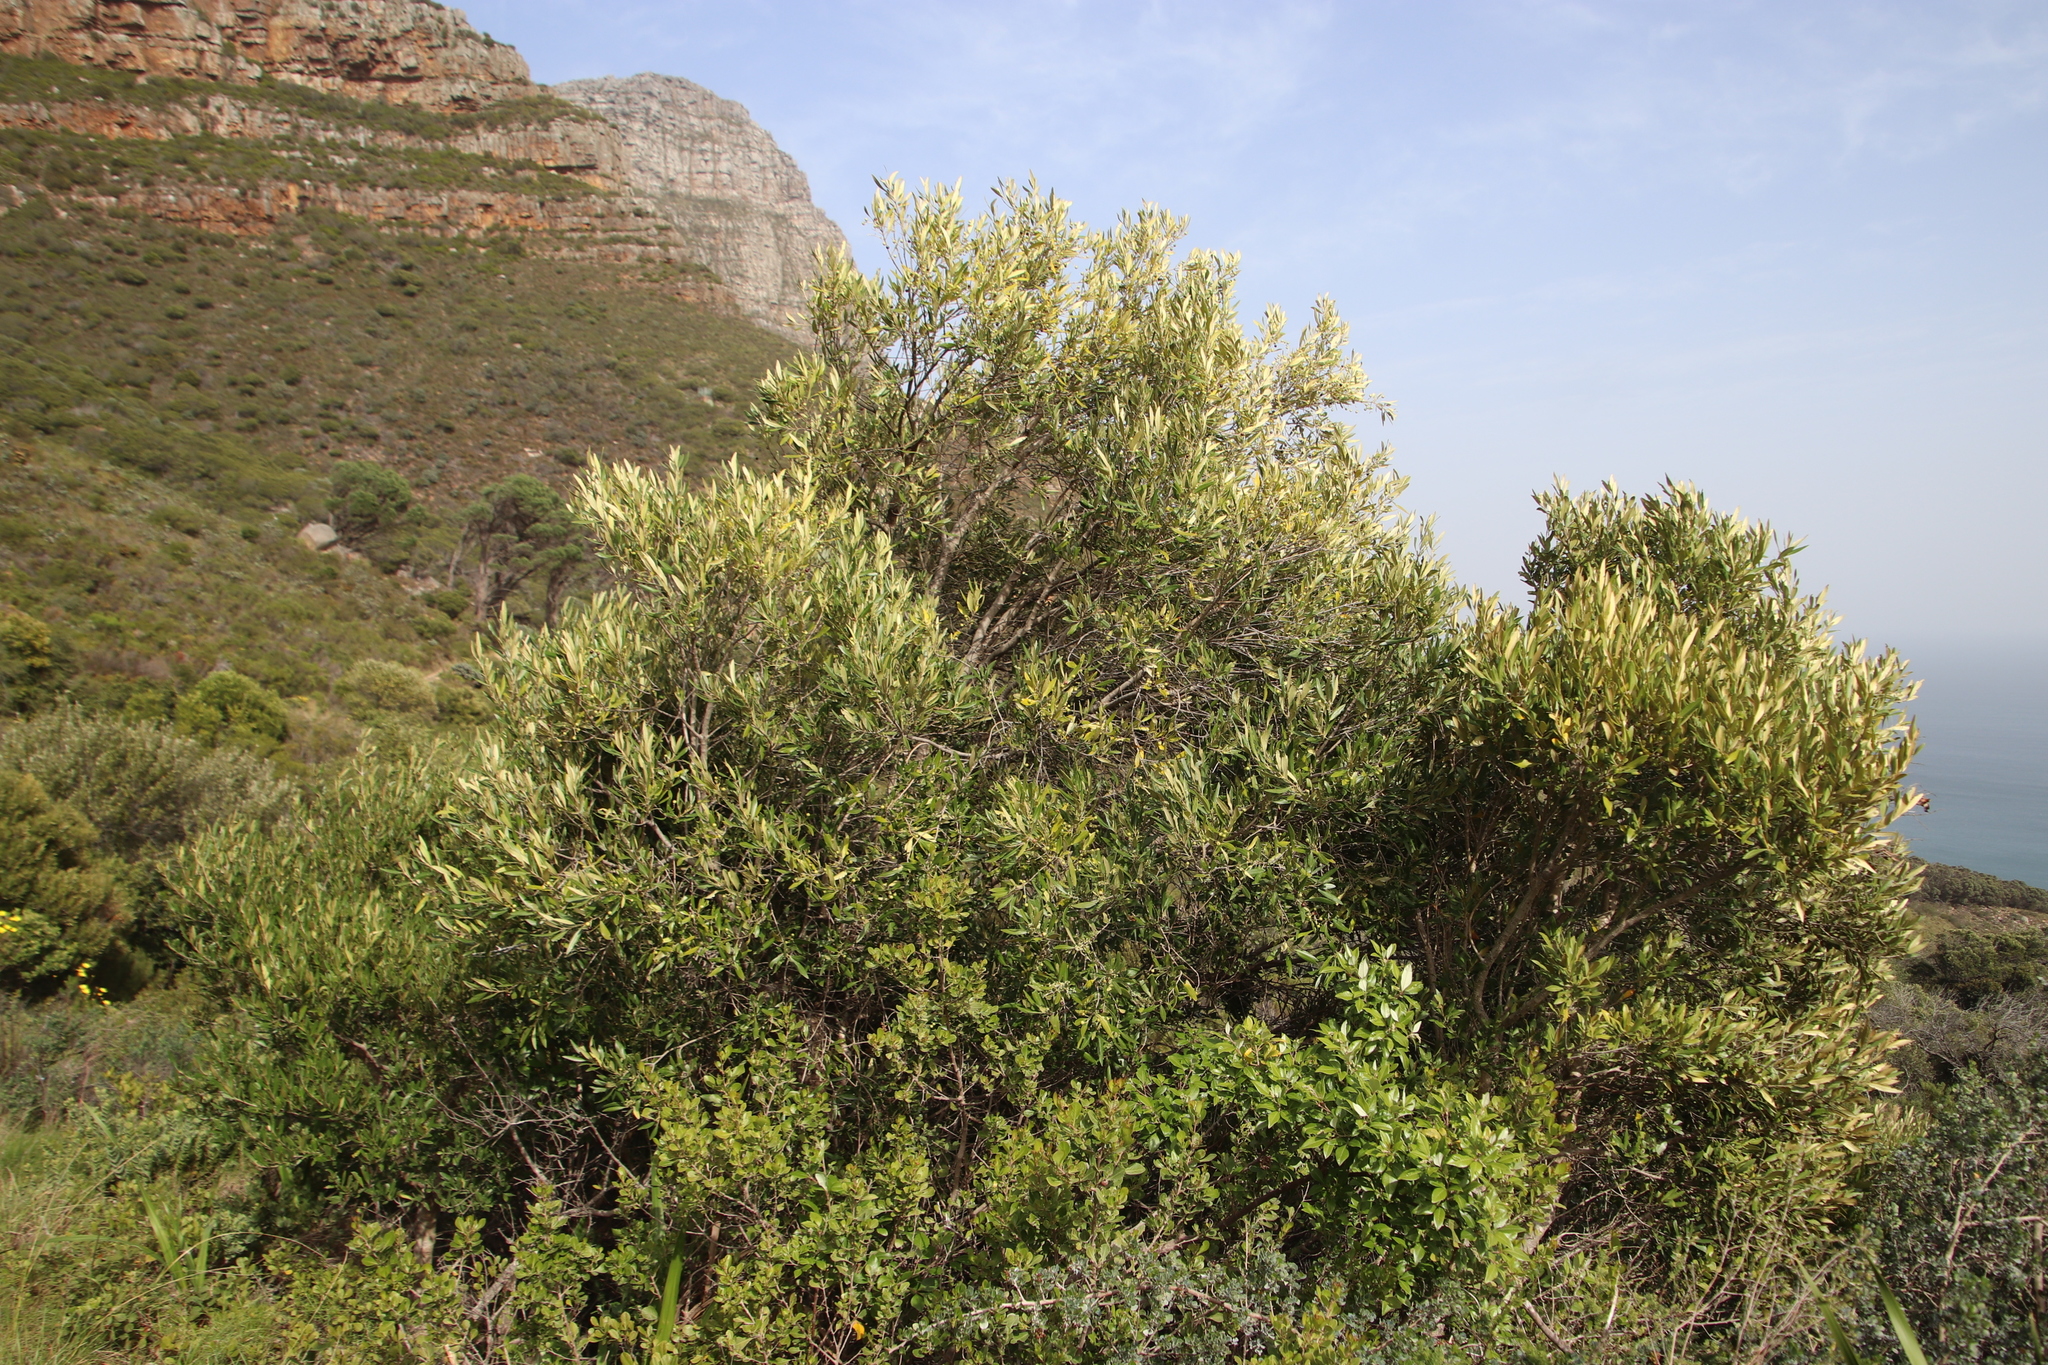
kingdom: Plantae
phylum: Tracheophyta
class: Magnoliopsida
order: Lamiales
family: Oleaceae
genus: Olea
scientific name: Olea europaea
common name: Olive
